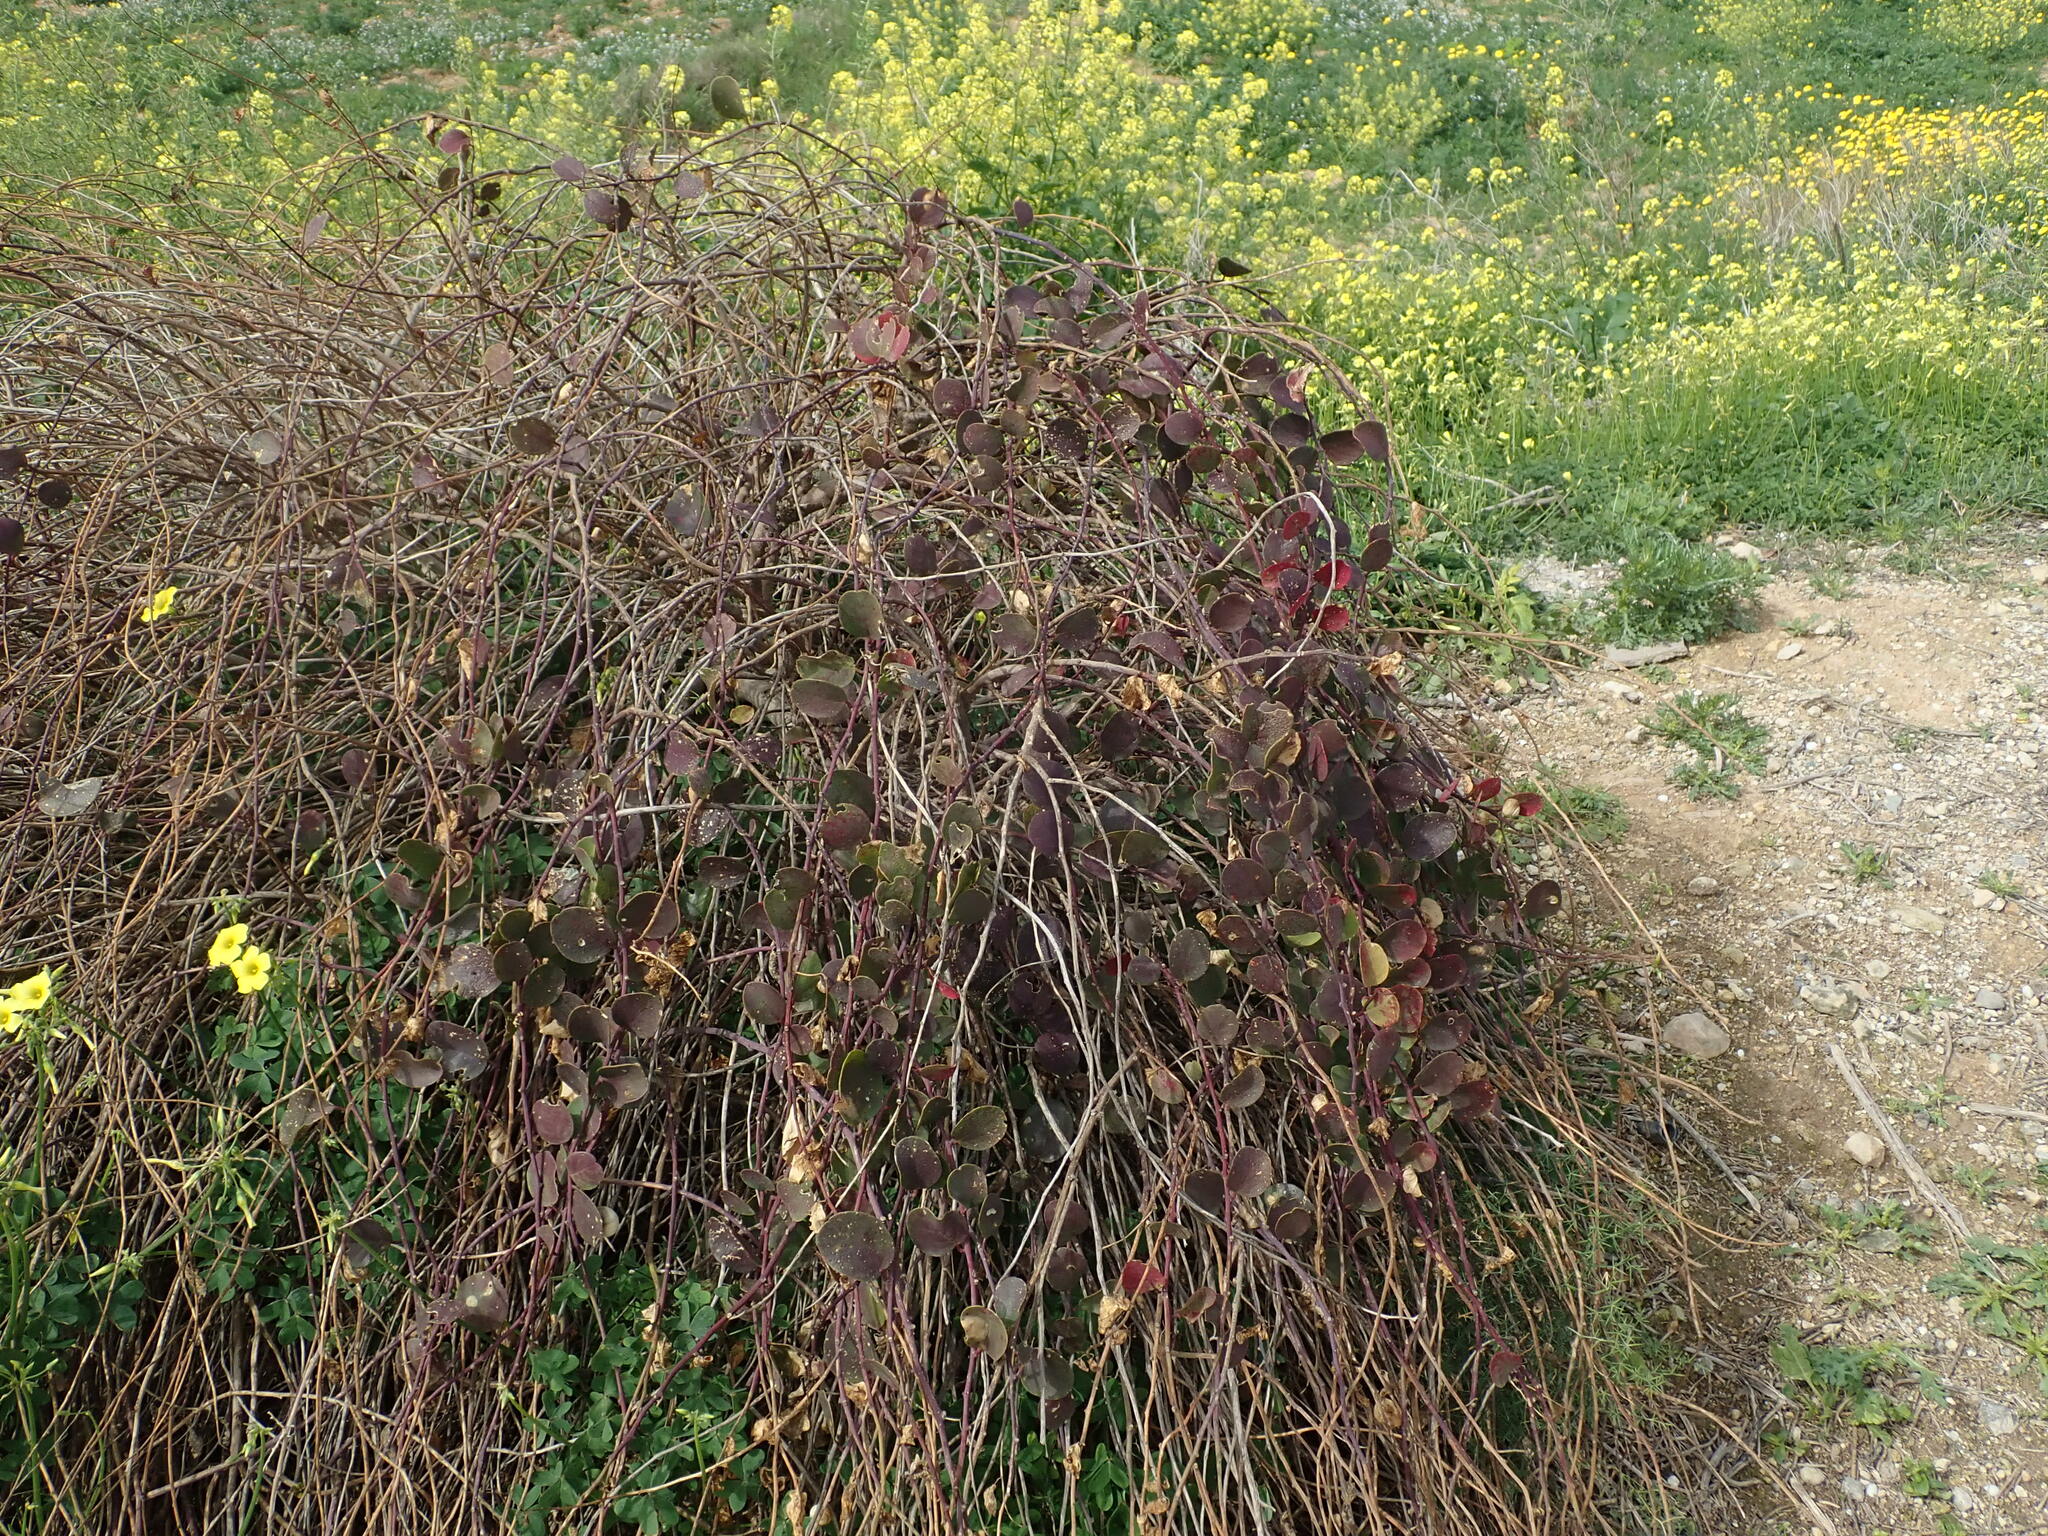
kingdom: Plantae
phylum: Tracheophyta
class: Magnoliopsida
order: Brassicales
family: Capparaceae
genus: Capparis
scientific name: Capparis orientalis
